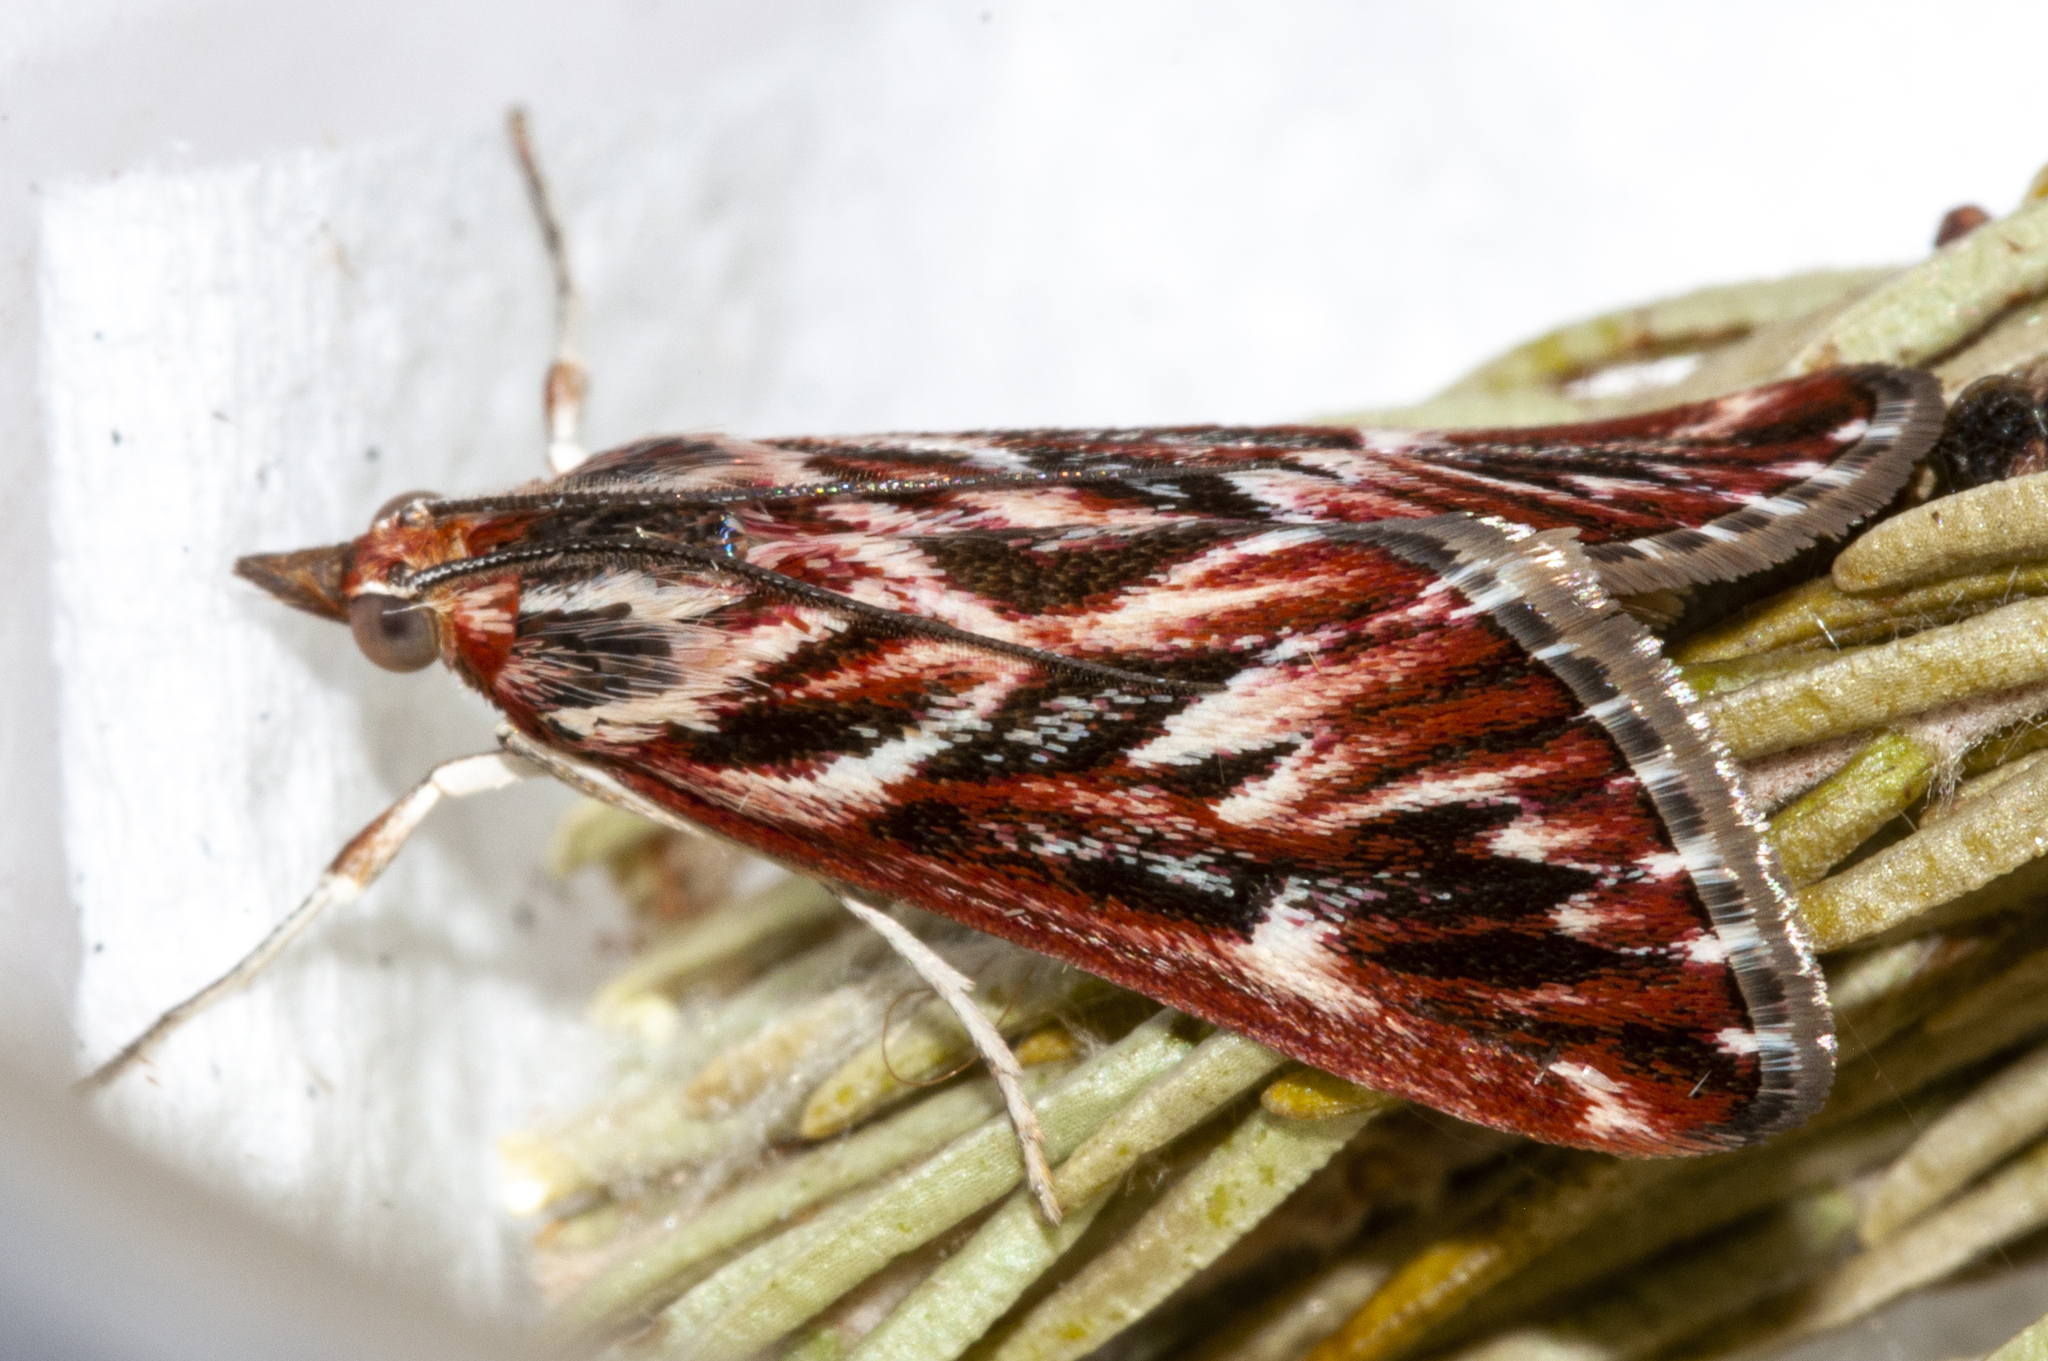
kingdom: Animalia
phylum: Arthropoda
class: Insecta
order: Lepidoptera
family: Crambidae
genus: Blepharucha
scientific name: Blepharucha zaide
